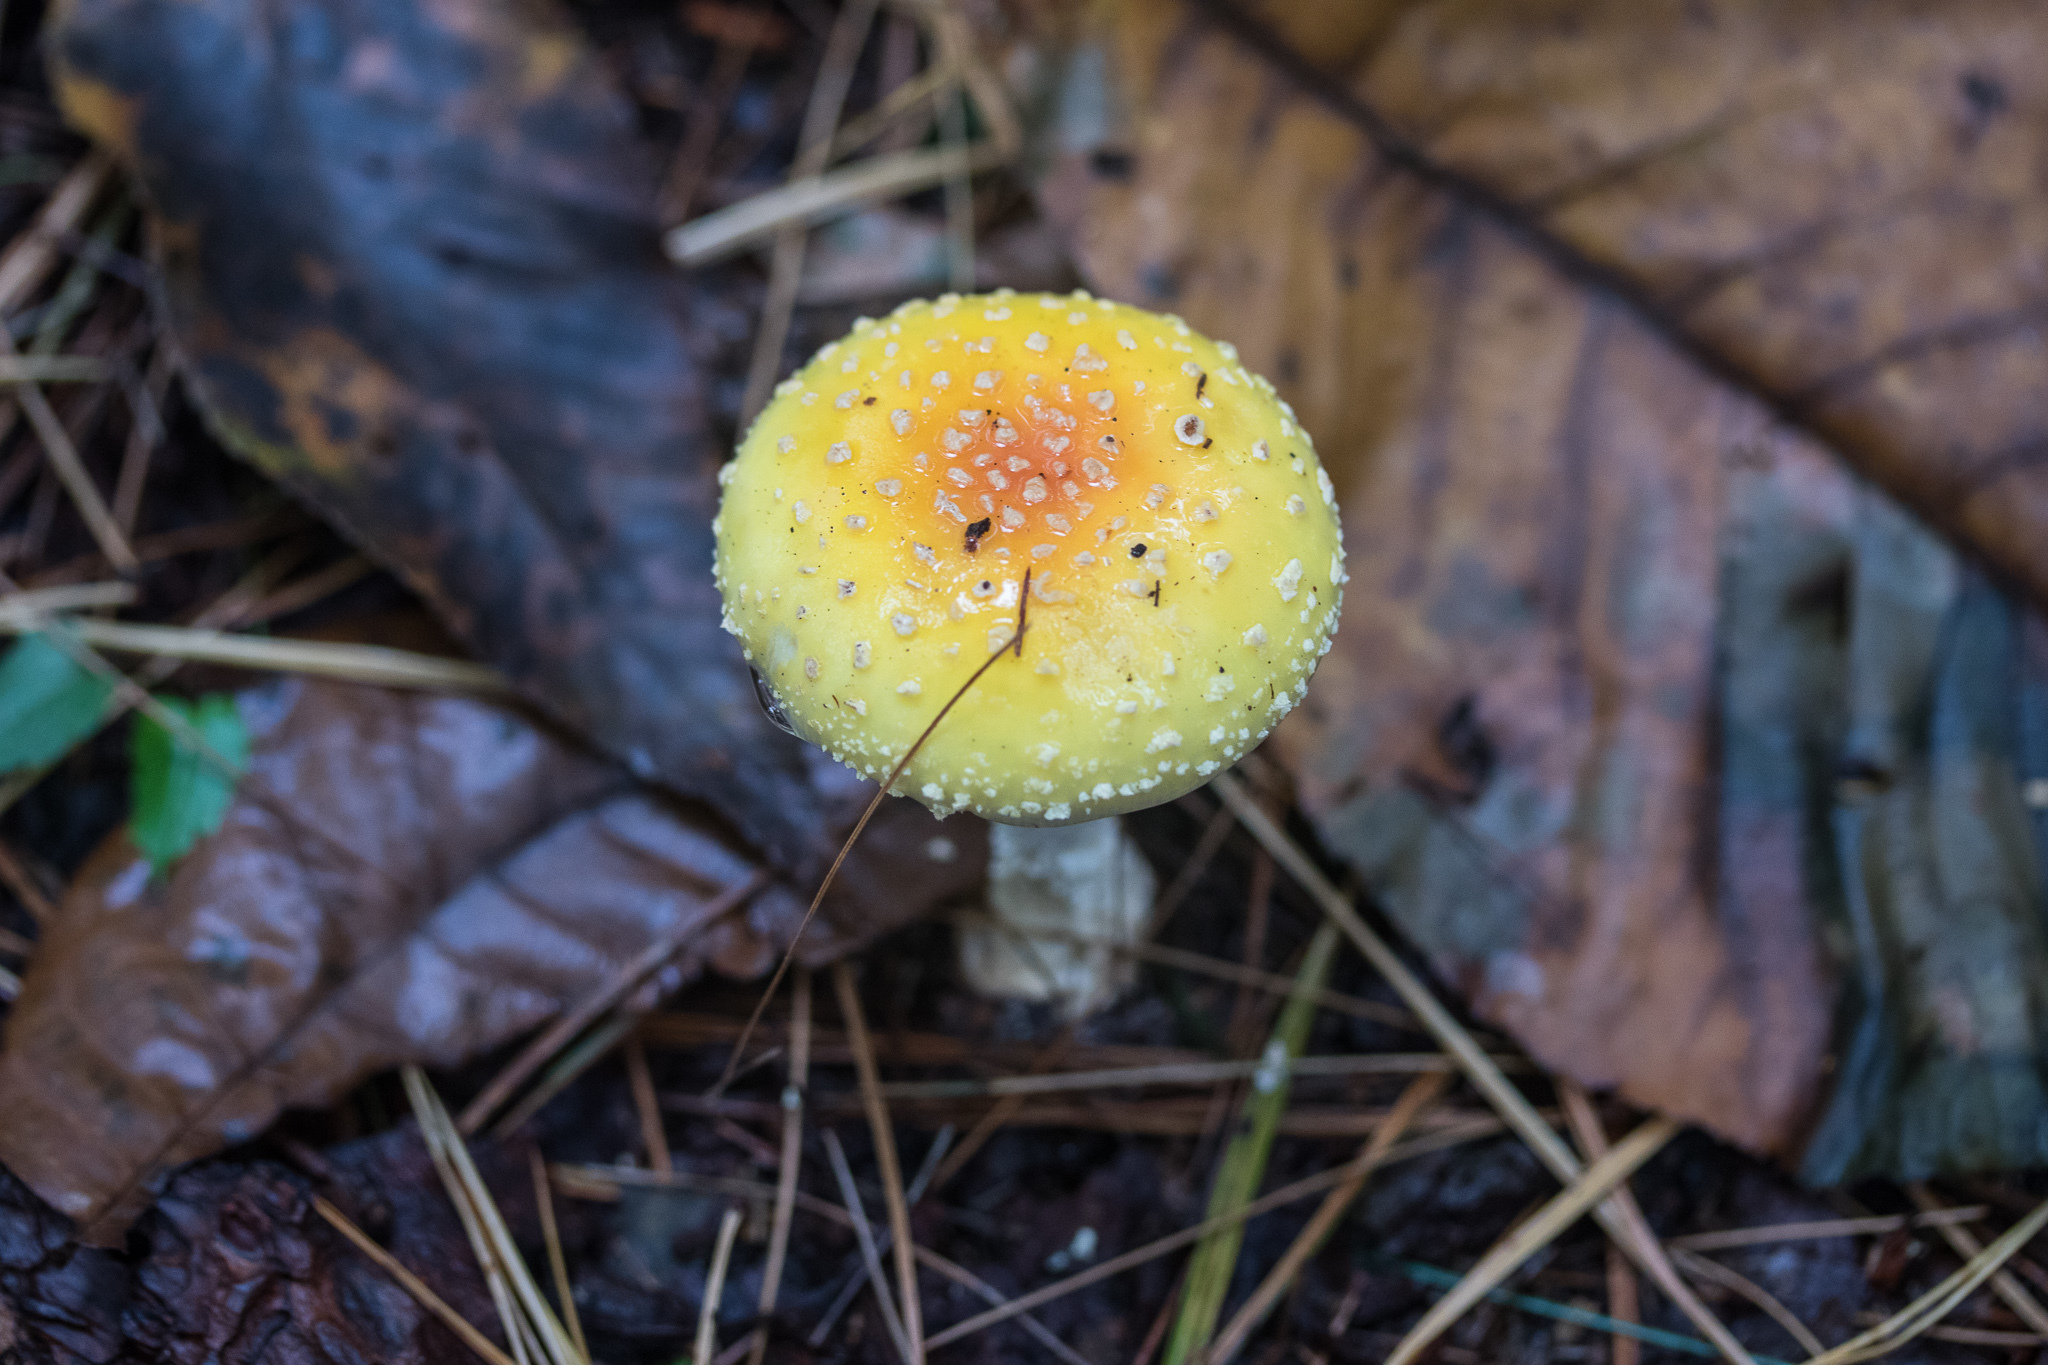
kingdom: Fungi
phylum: Basidiomycota
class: Agaricomycetes
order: Agaricales
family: Amanitaceae
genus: Amanita
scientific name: Amanita muscaria
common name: Fly agaric
